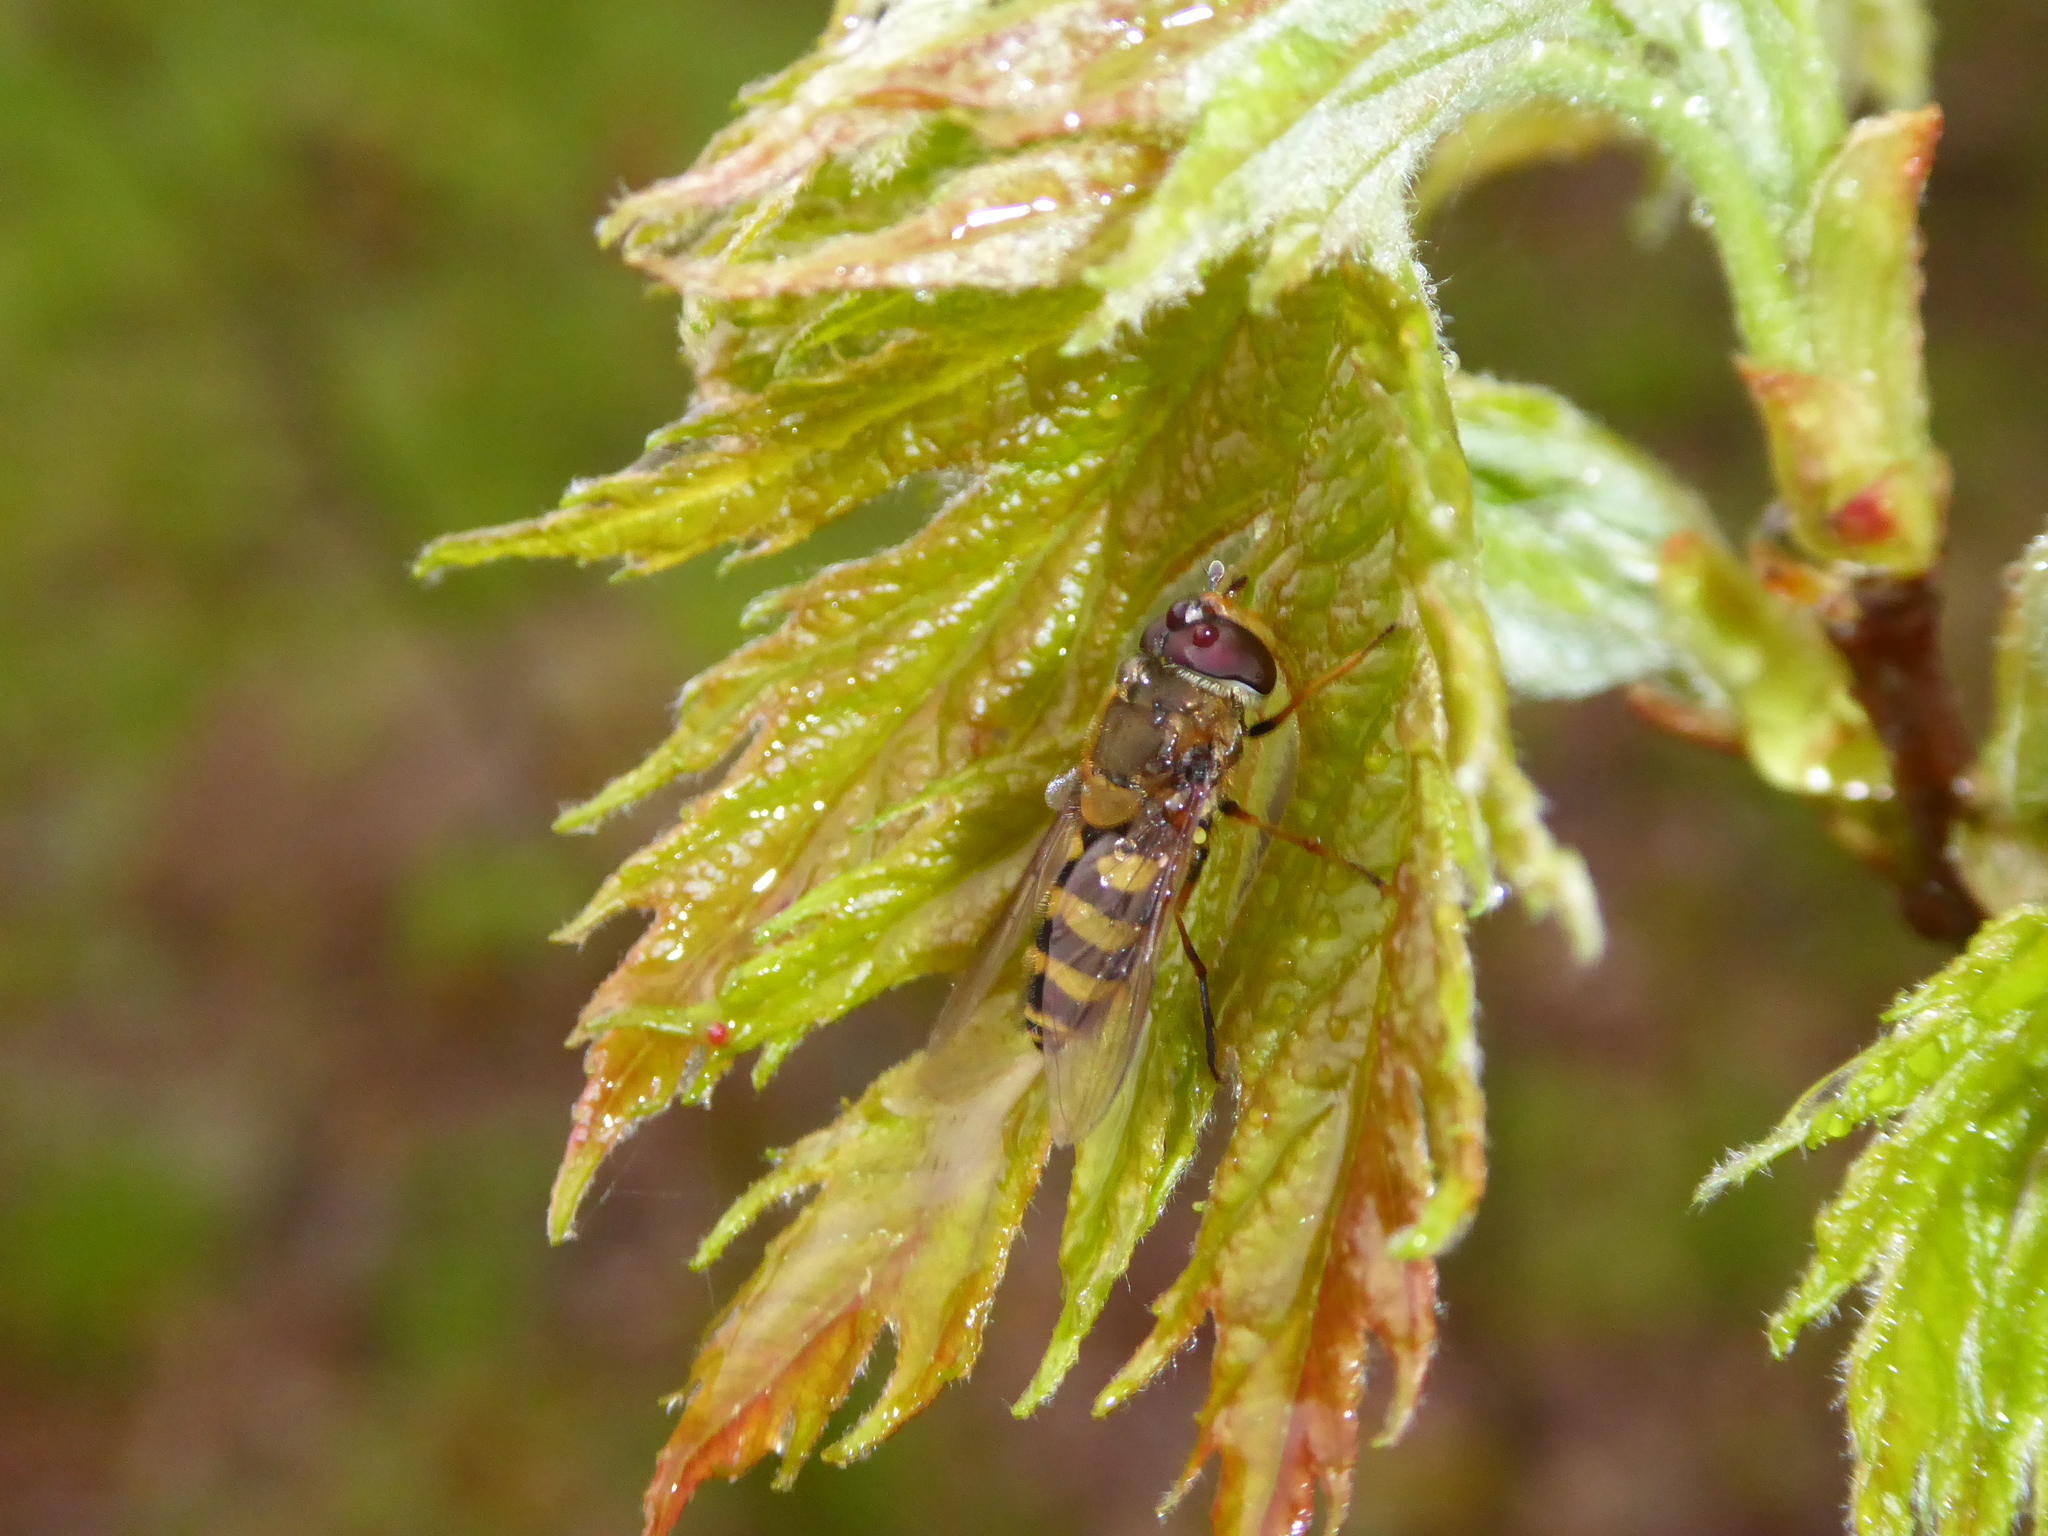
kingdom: Animalia
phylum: Arthropoda
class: Insecta
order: Diptera
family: Syrphidae
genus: Syrphus
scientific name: Syrphus
